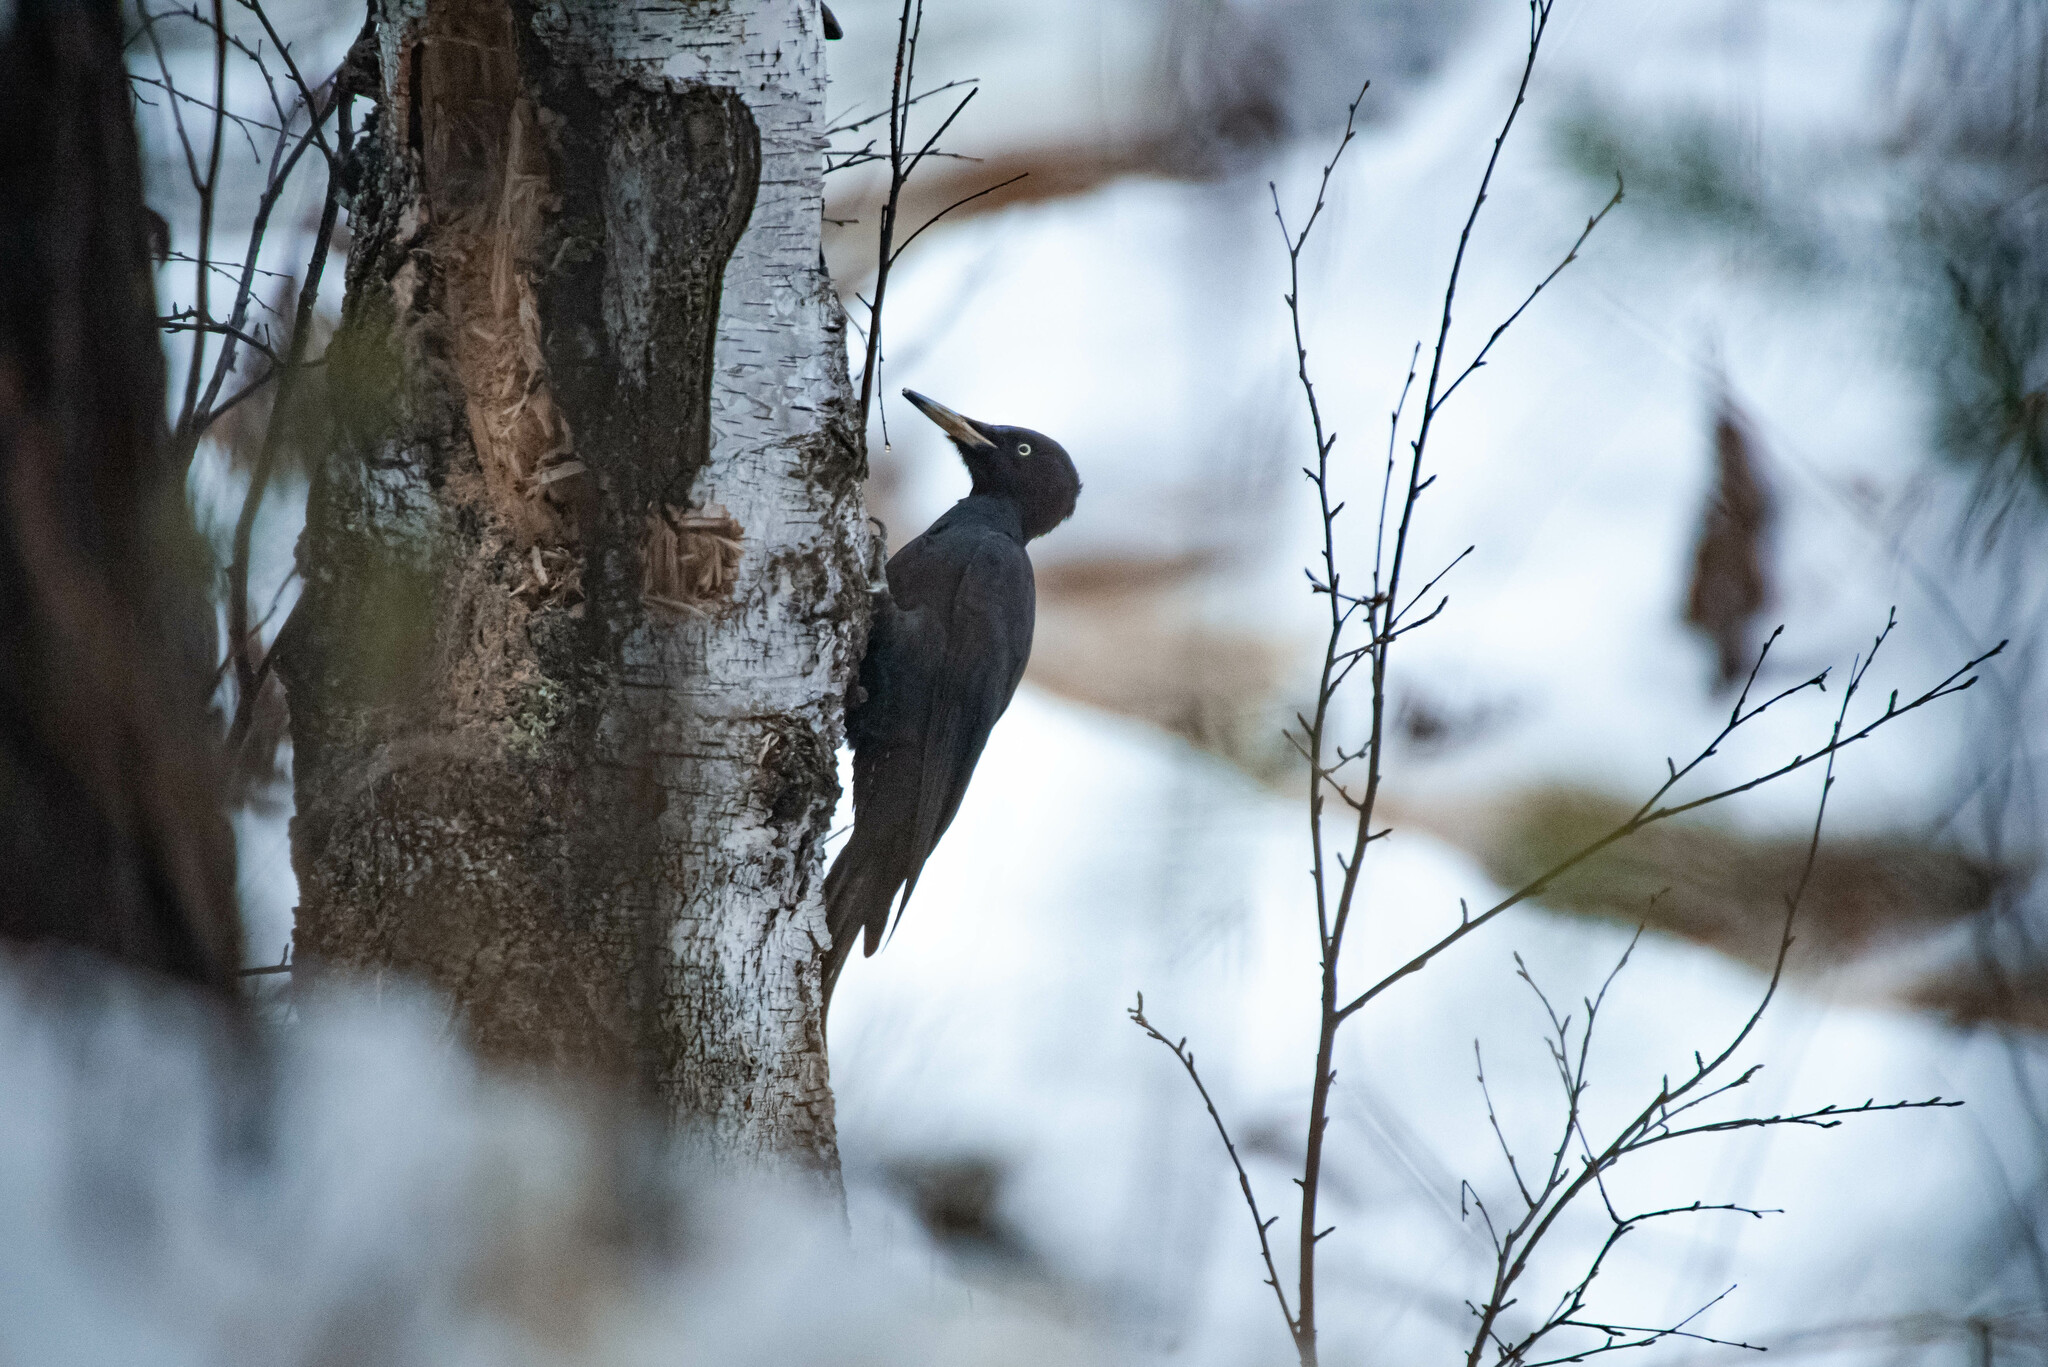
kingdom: Animalia
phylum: Chordata
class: Aves
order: Piciformes
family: Picidae
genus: Dryocopus
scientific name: Dryocopus martius
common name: Black woodpecker
